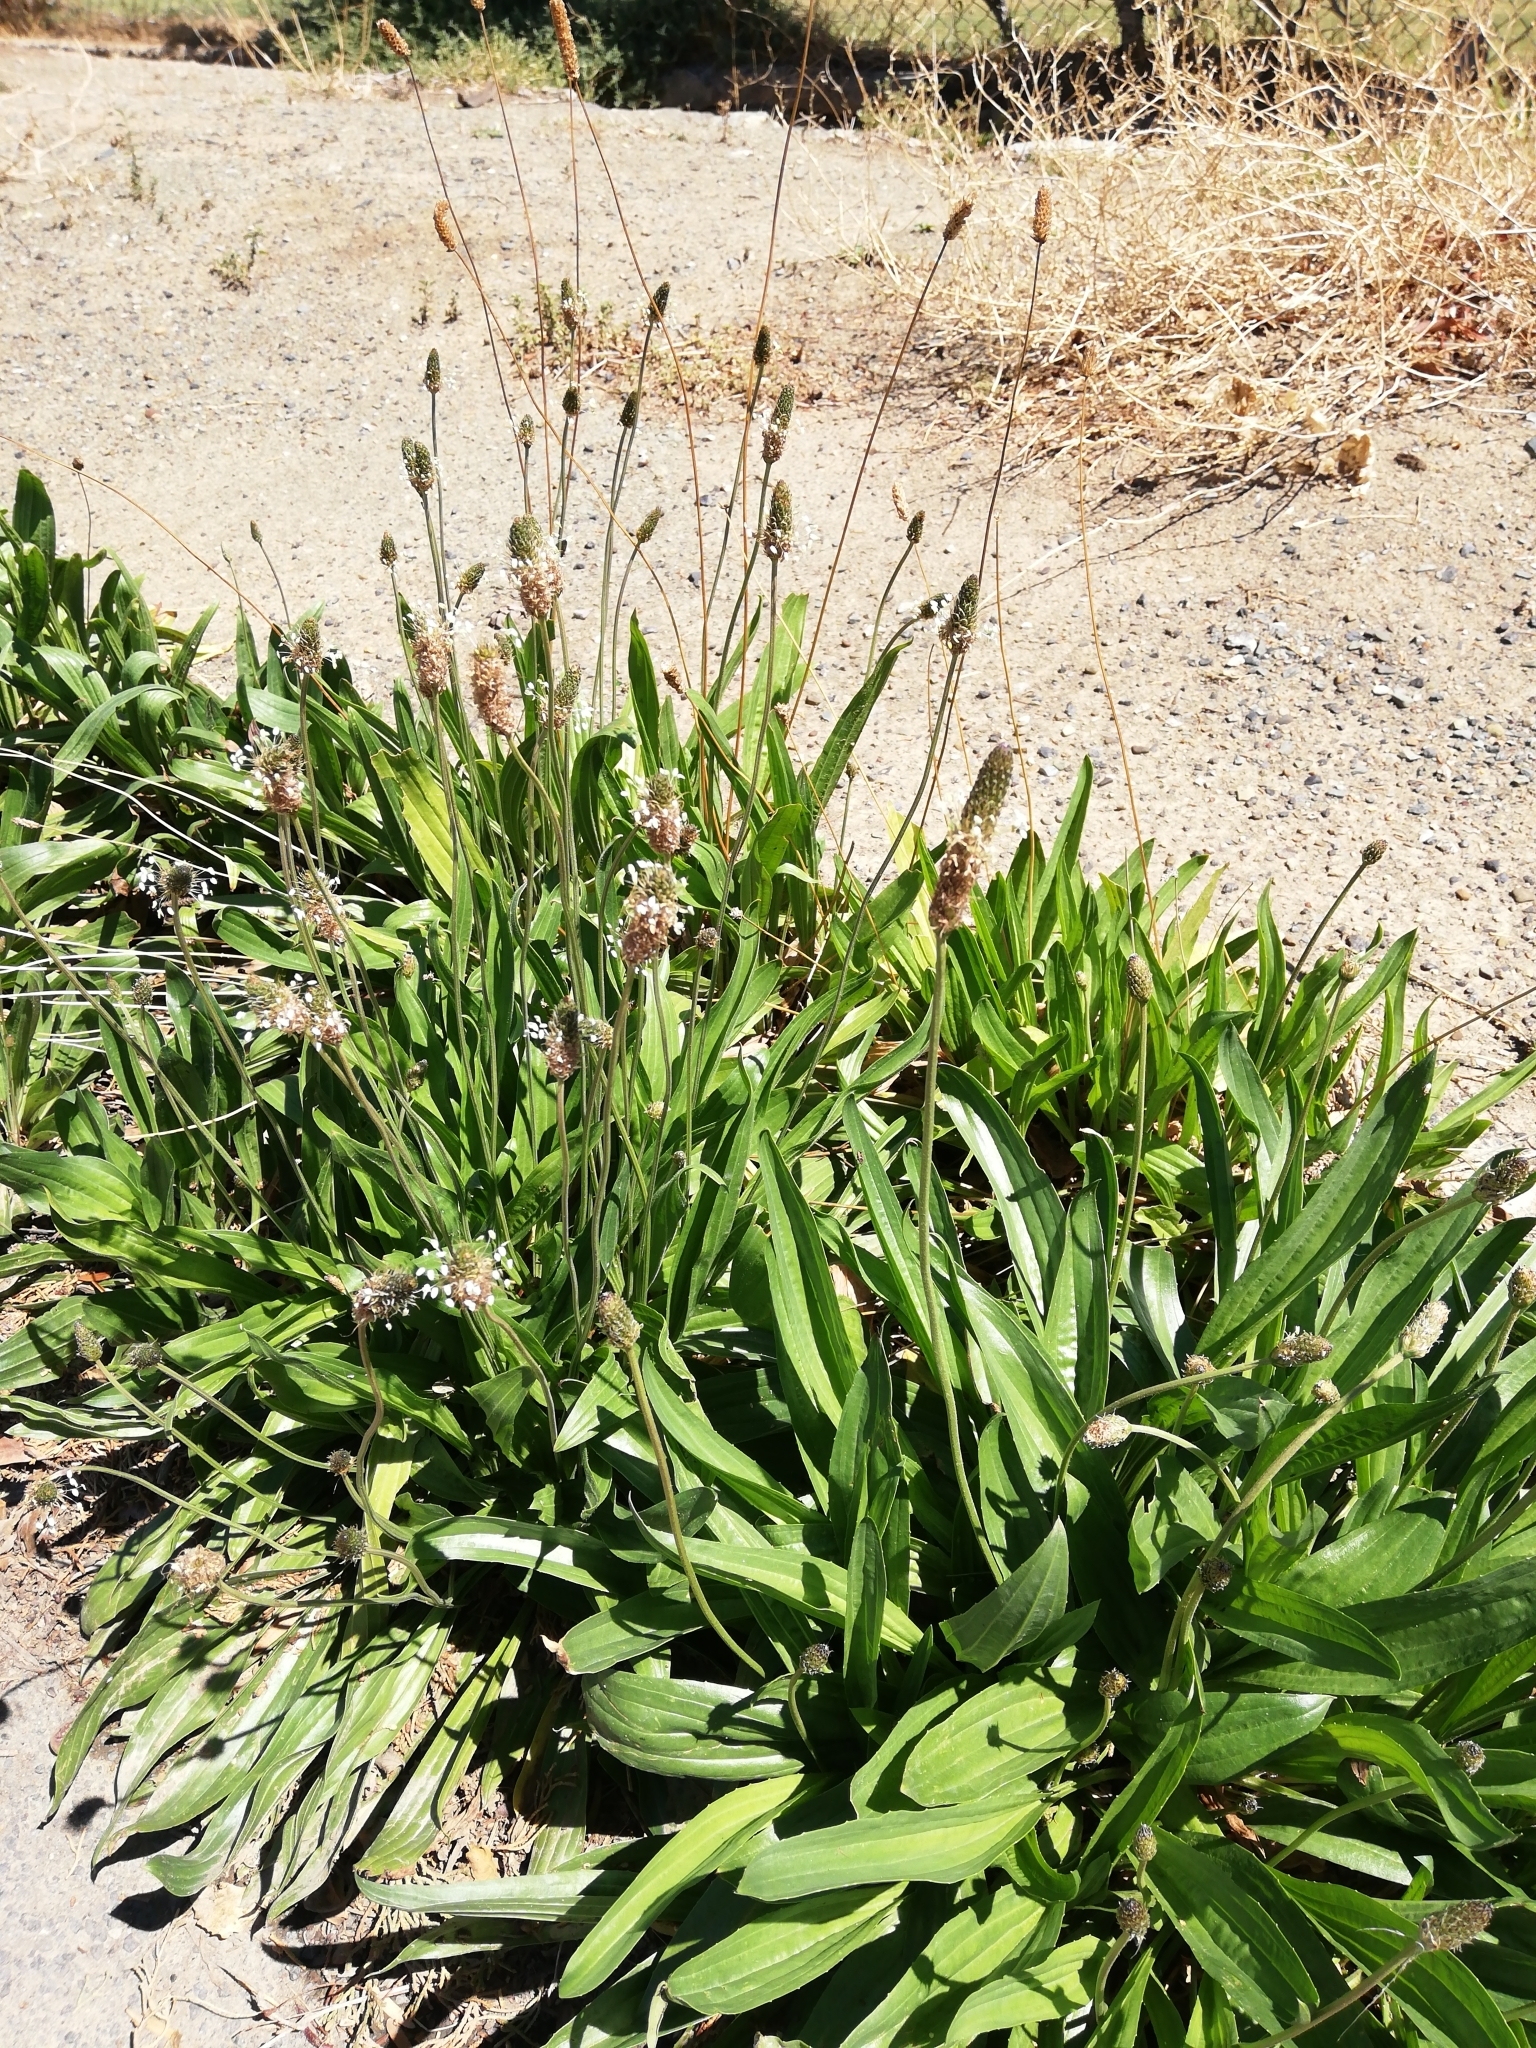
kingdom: Plantae
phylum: Tracheophyta
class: Magnoliopsida
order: Lamiales
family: Plantaginaceae
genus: Plantago
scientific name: Plantago lanceolata
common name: Ribwort plantain
